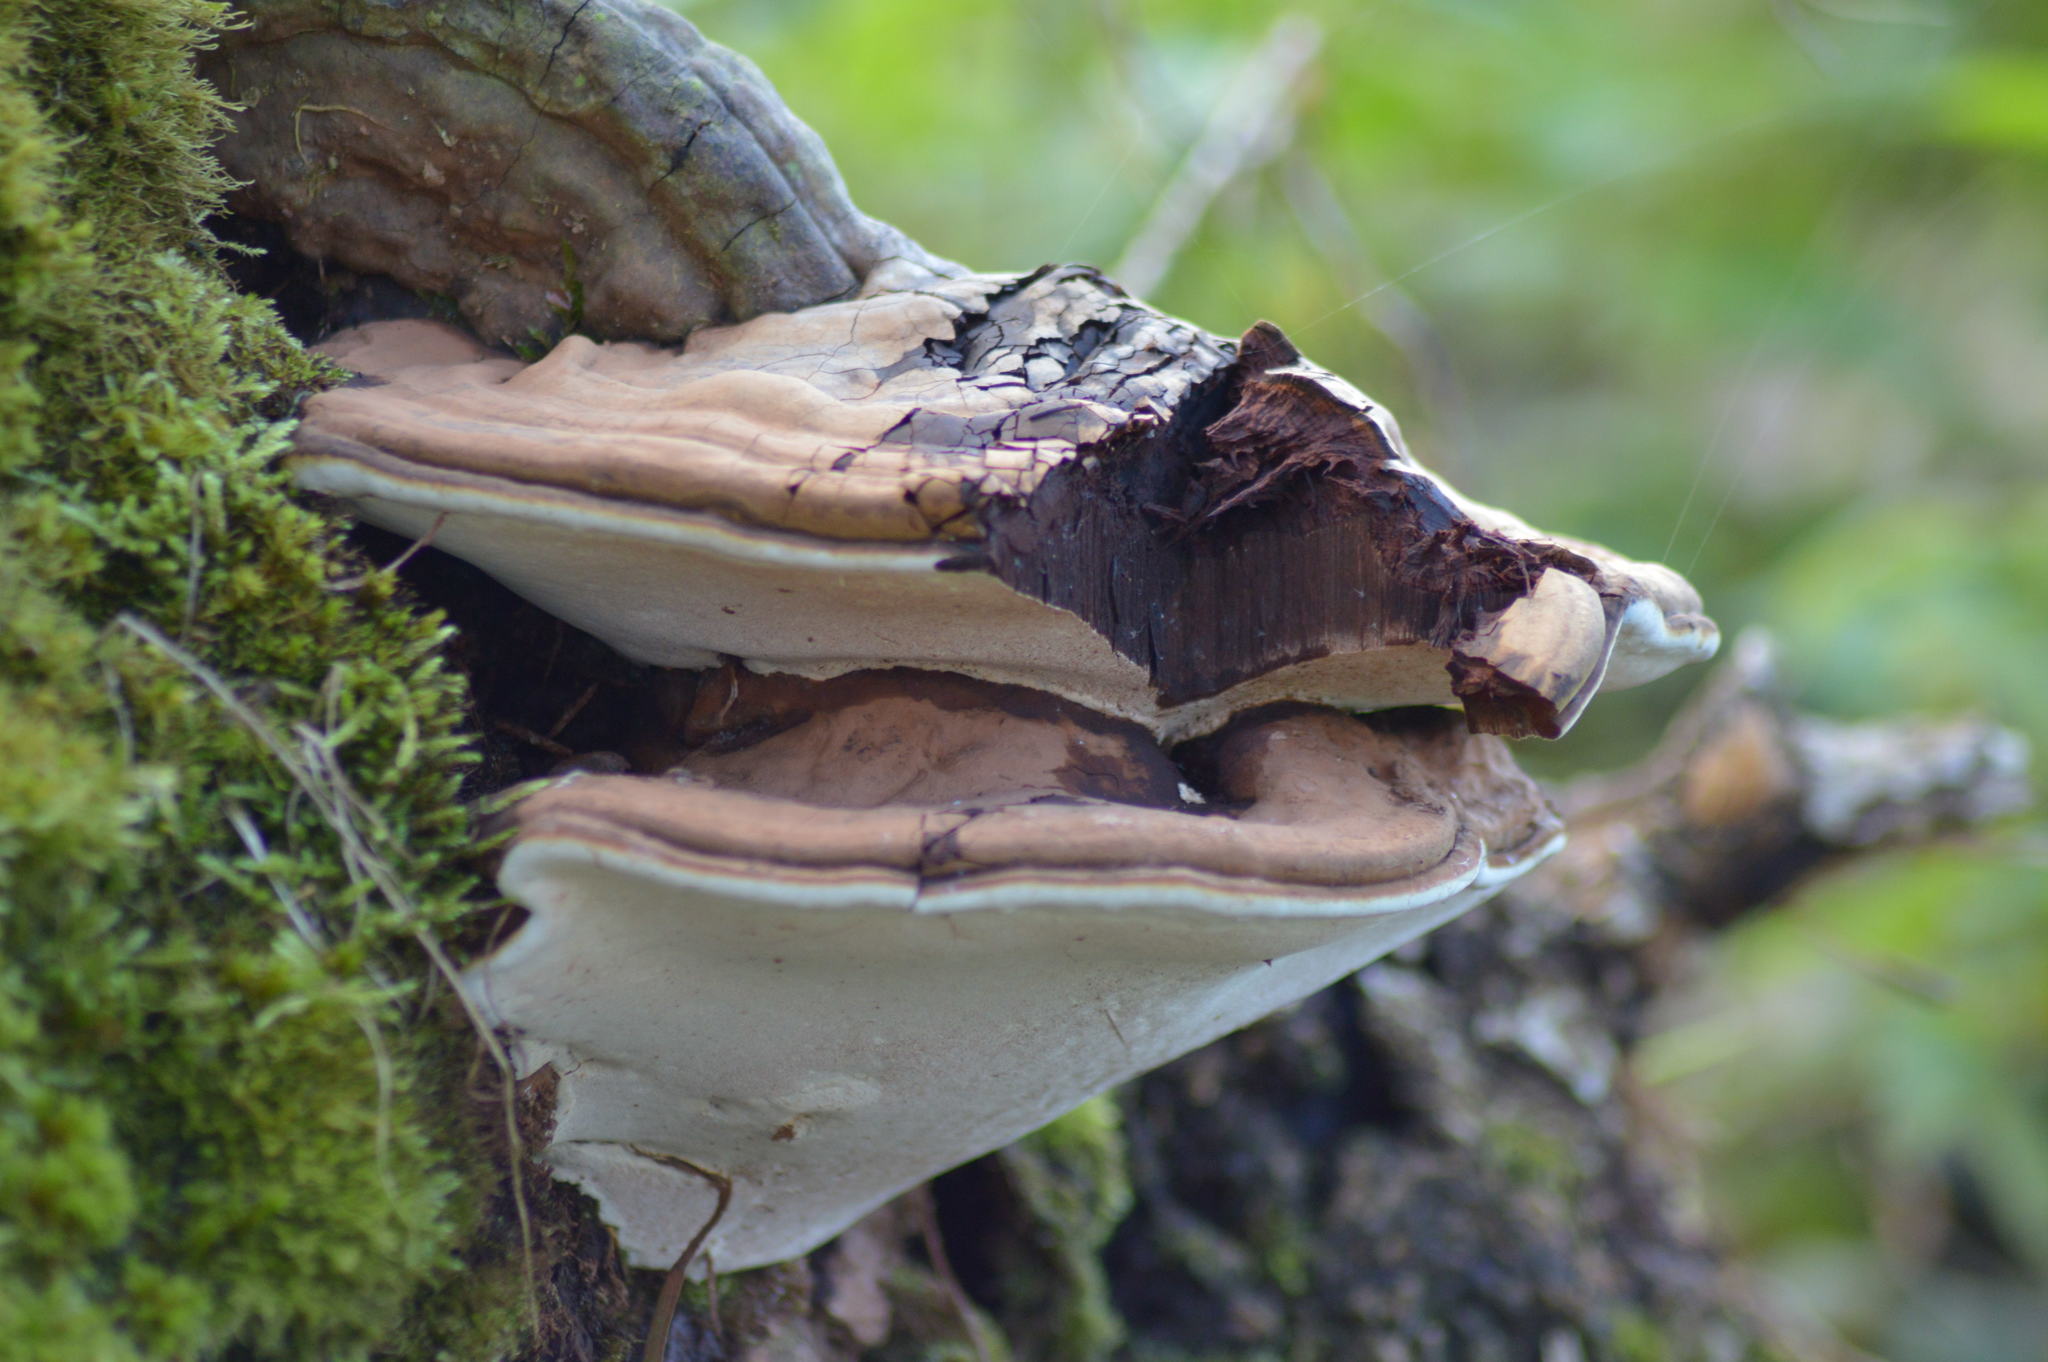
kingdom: Fungi
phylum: Basidiomycota
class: Agaricomycetes
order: Polyporales
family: Polyporaceae
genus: Ganoderma
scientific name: Ganoderma applanatum
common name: Artist's bracket
